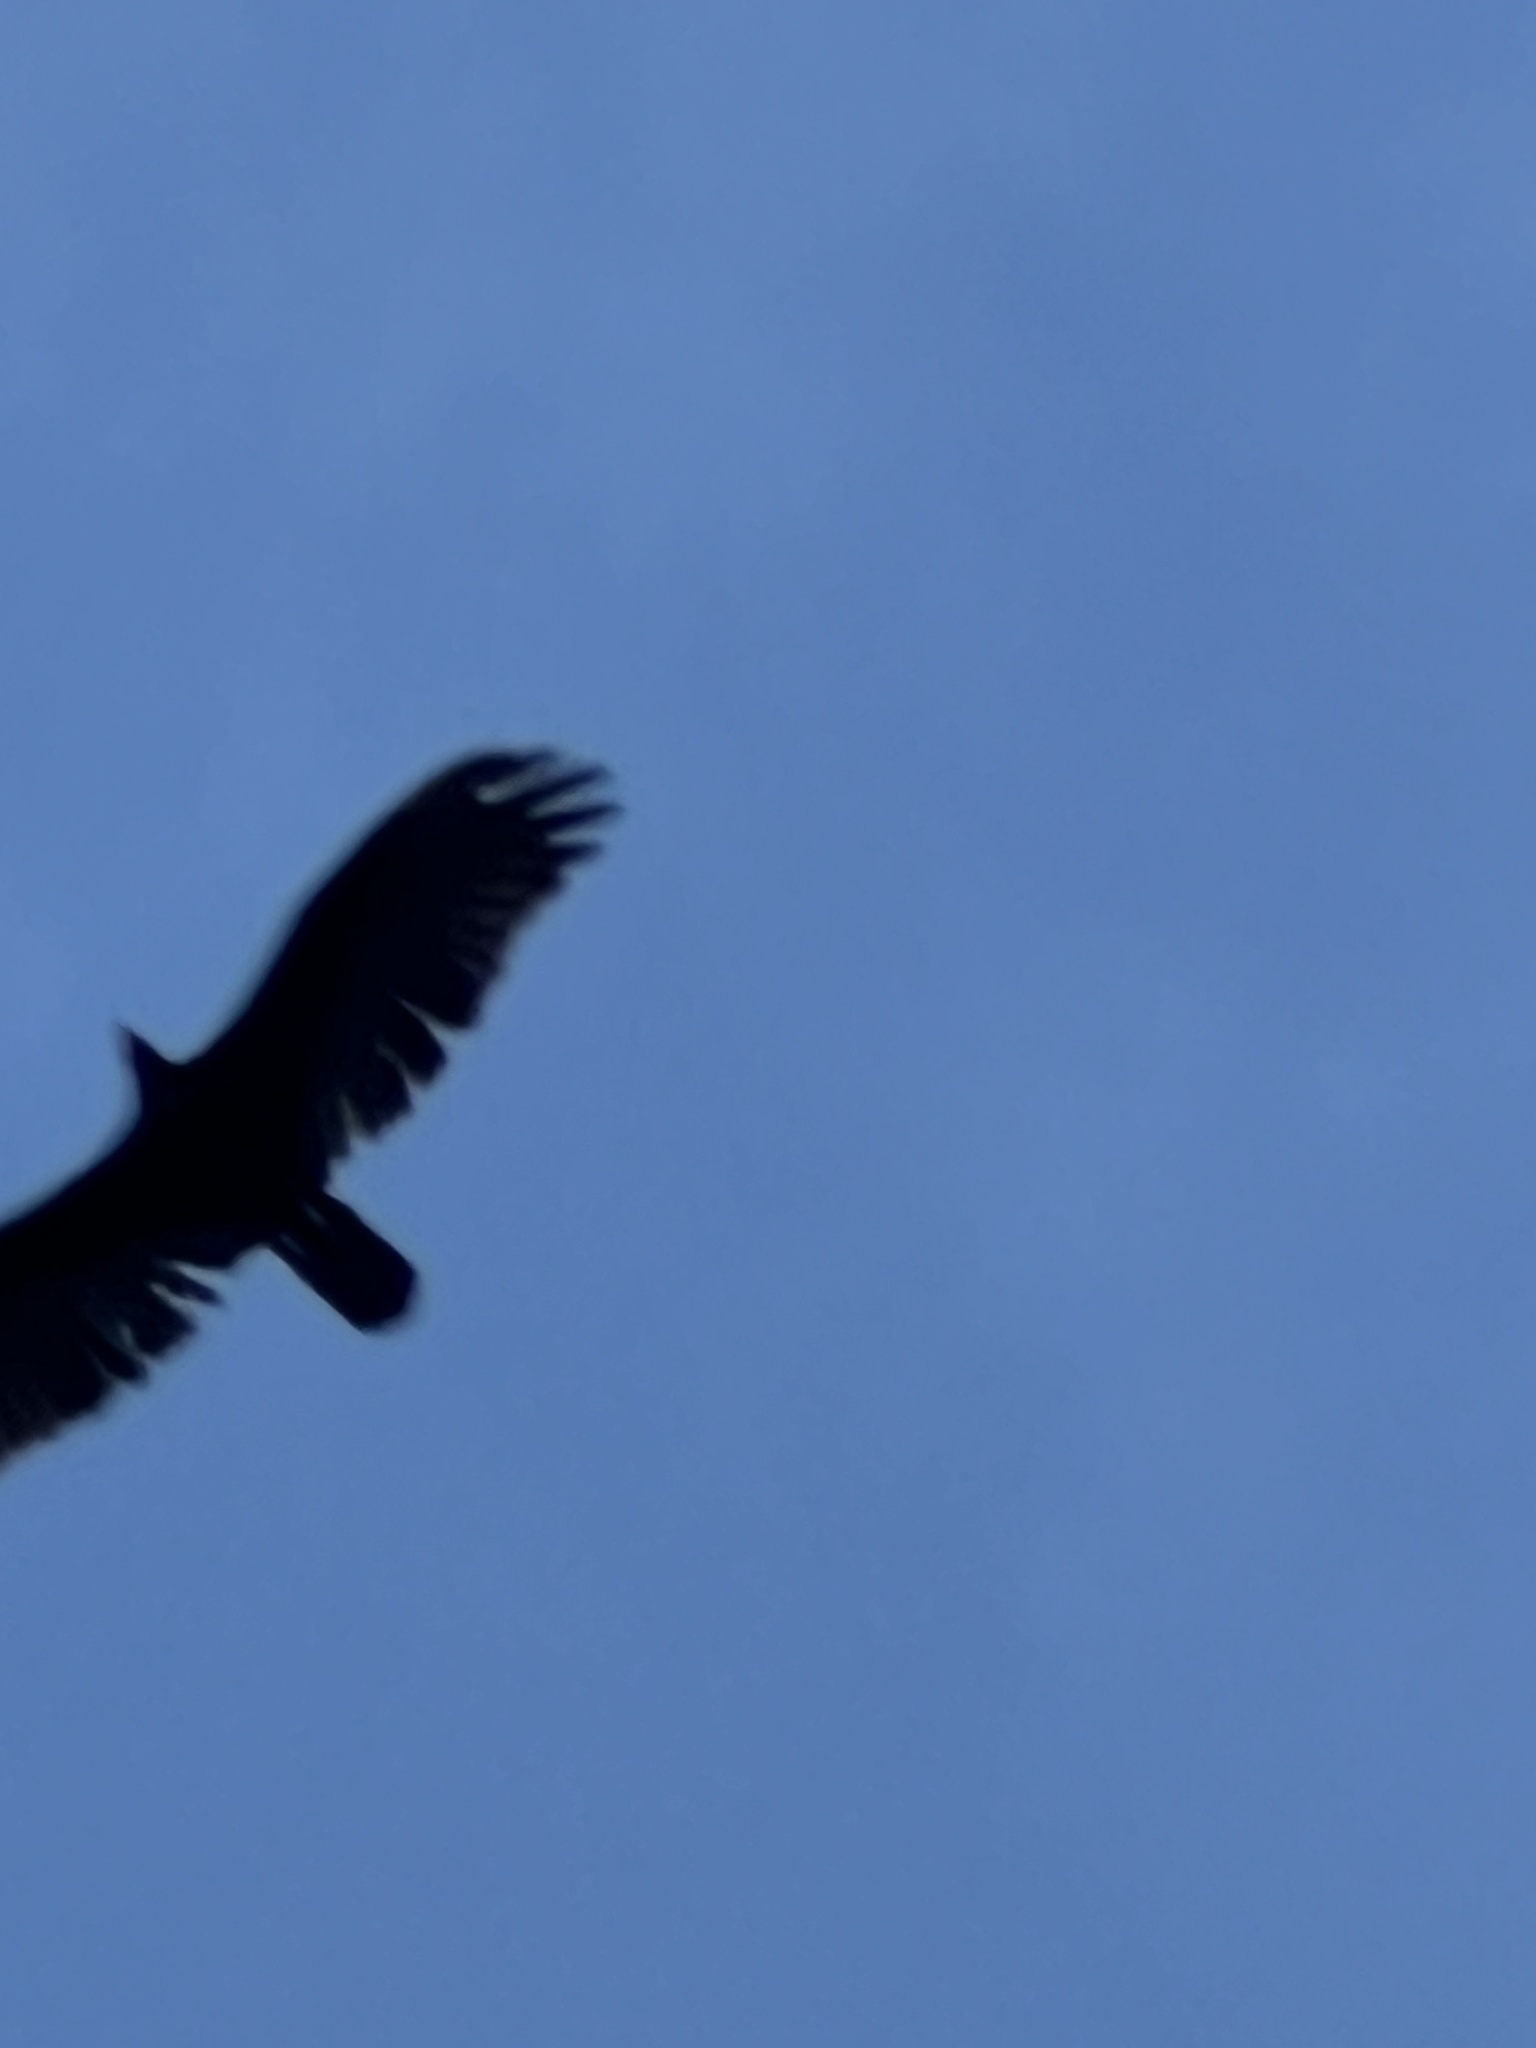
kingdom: Animalia
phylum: Chordata
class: Aves
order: Accipitriformes
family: Cathartidae
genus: Cathartes
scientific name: Cathartes aura
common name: Turkey vulture
